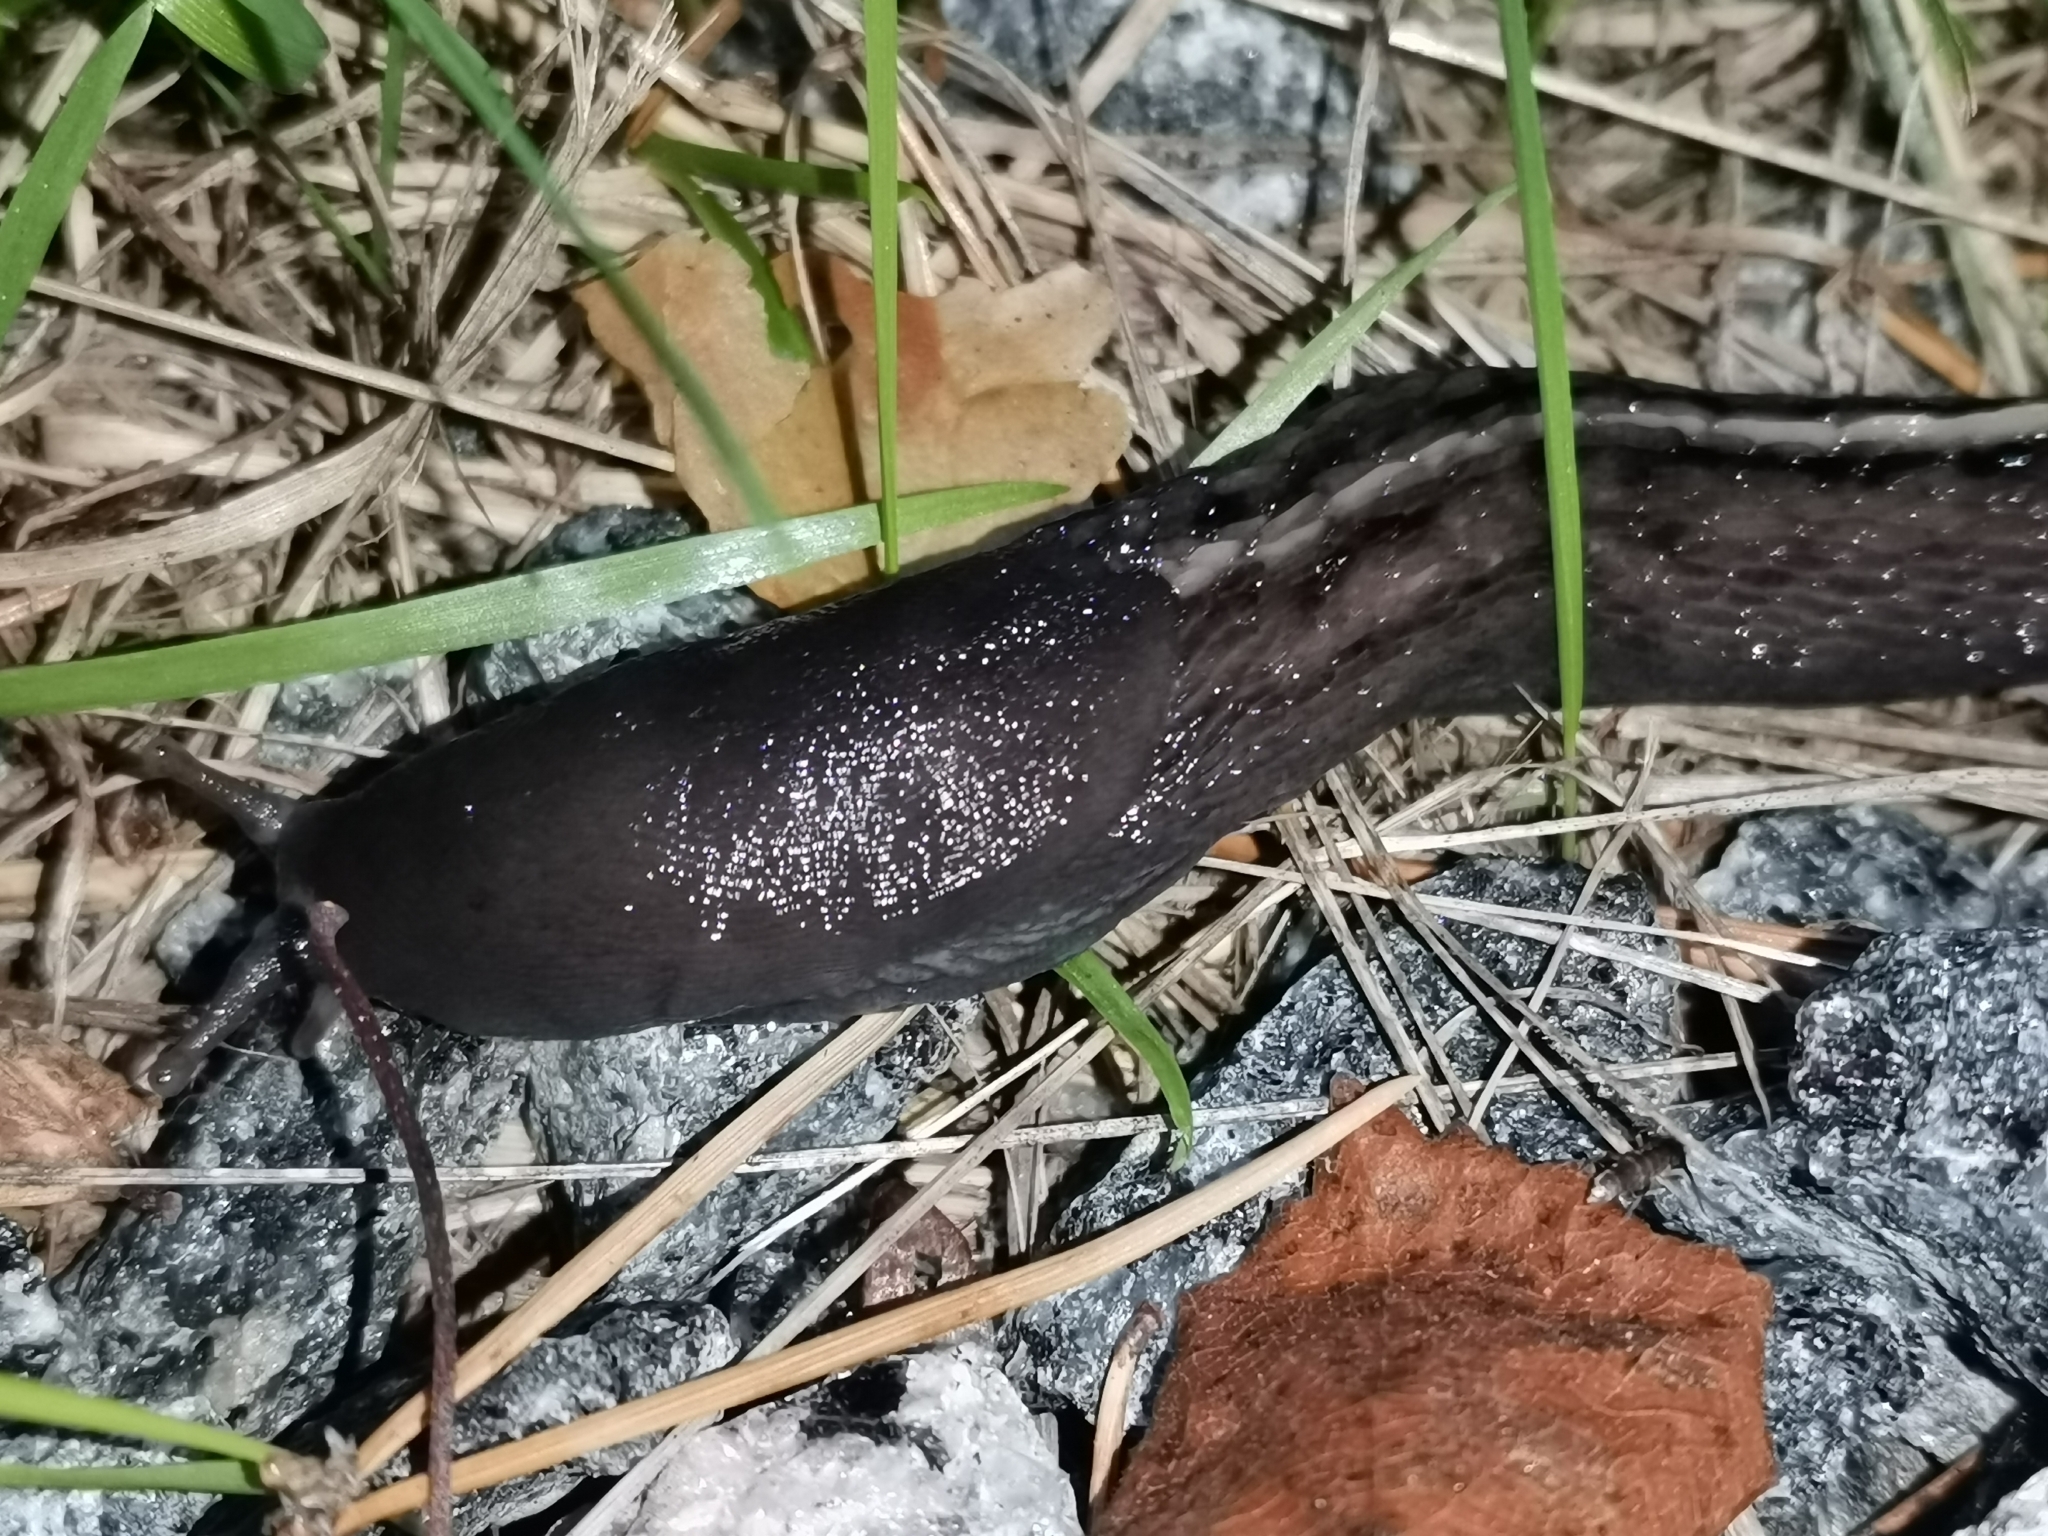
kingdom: Animalia
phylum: Mollusca
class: Gastropoda
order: Stylommatophora
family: Limacidae
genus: Limax
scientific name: Limax cinereoniger
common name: Ash-black slug
